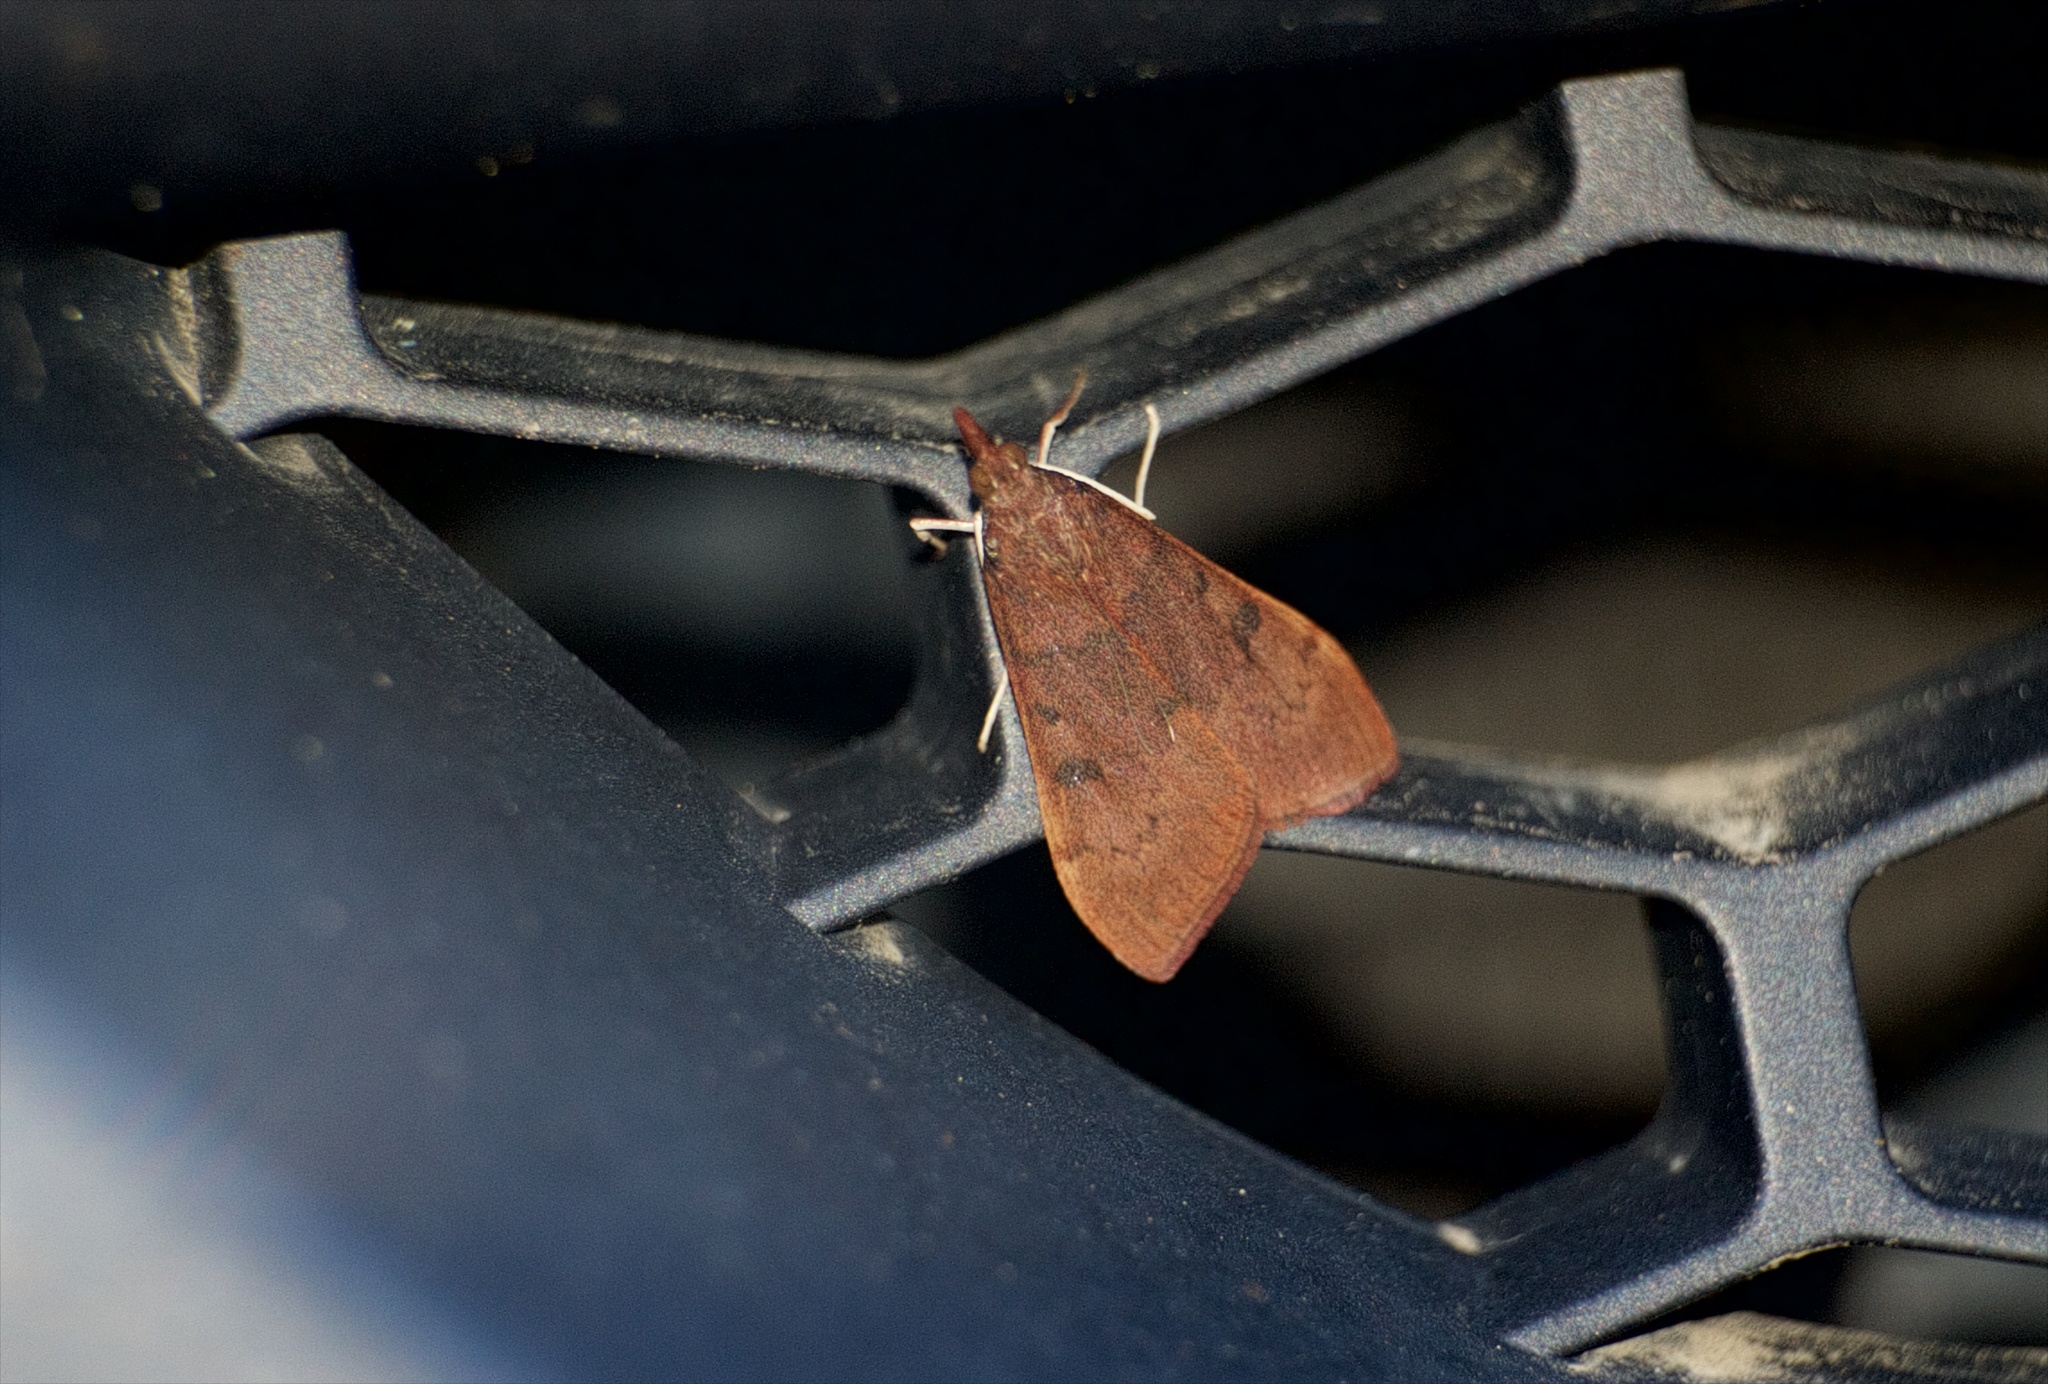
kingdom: Animalia
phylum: Arthropoda
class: Insecta
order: Lepidoptera
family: Crambidae
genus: Uresiphita
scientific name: Uresiphita reversalis
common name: Genista broom moth
